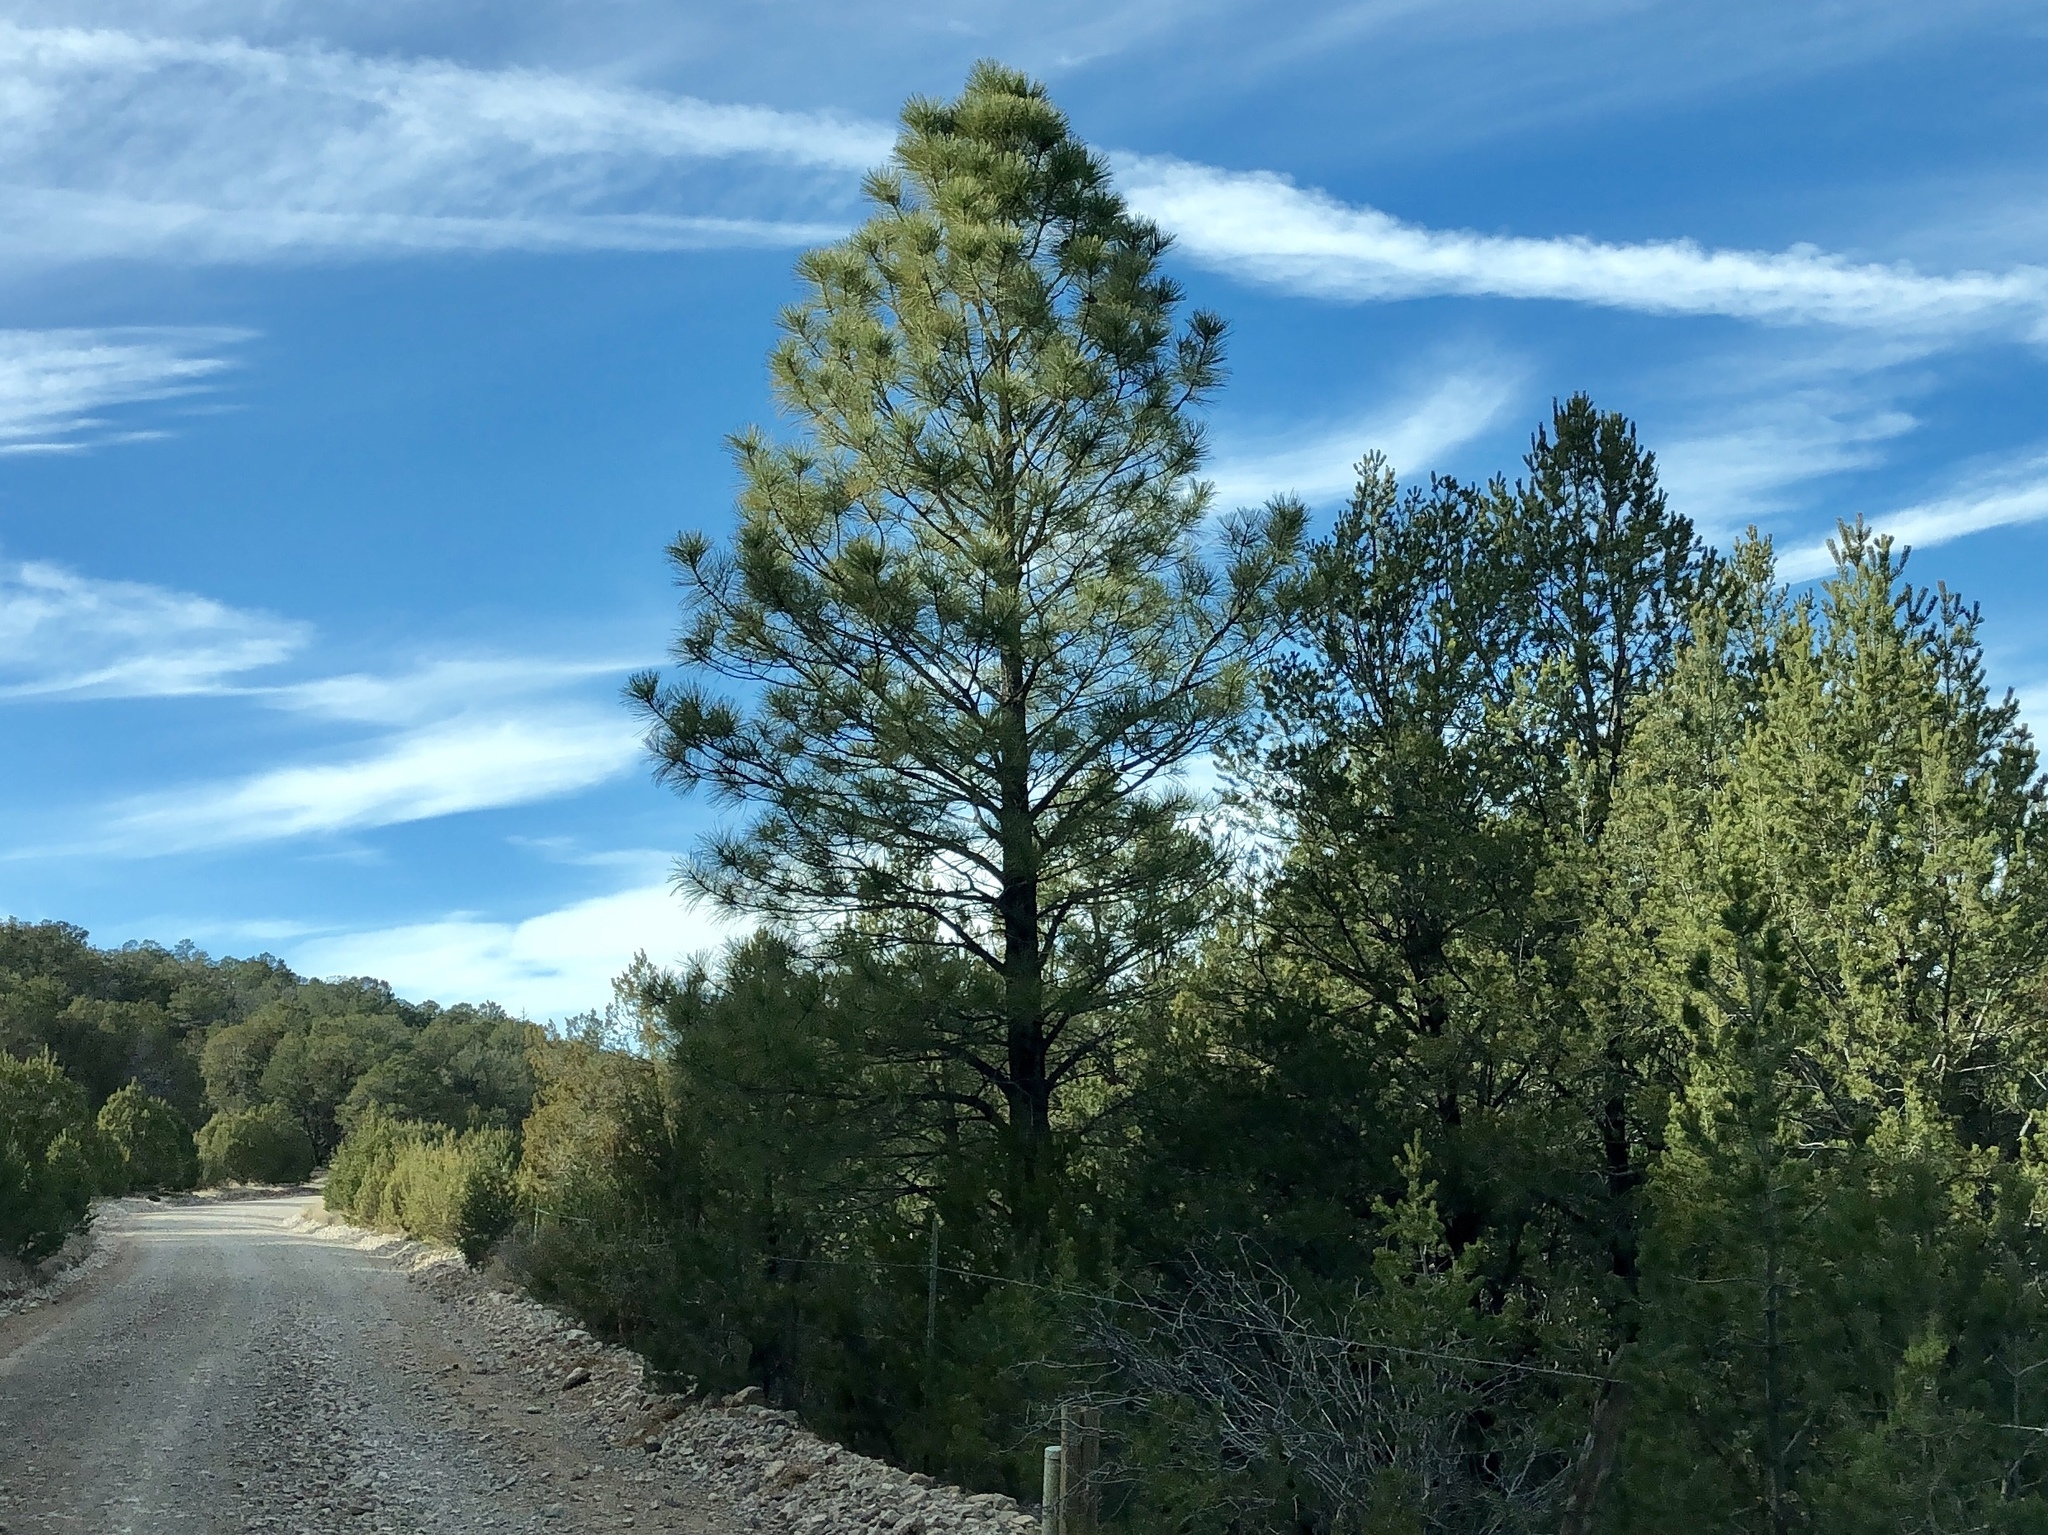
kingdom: Plantae
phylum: Tracheophyta
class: Pinopsida
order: Pinales
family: Pinaceae
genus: Pinus
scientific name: Pinus ponderosa
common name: Western yellow-pine
